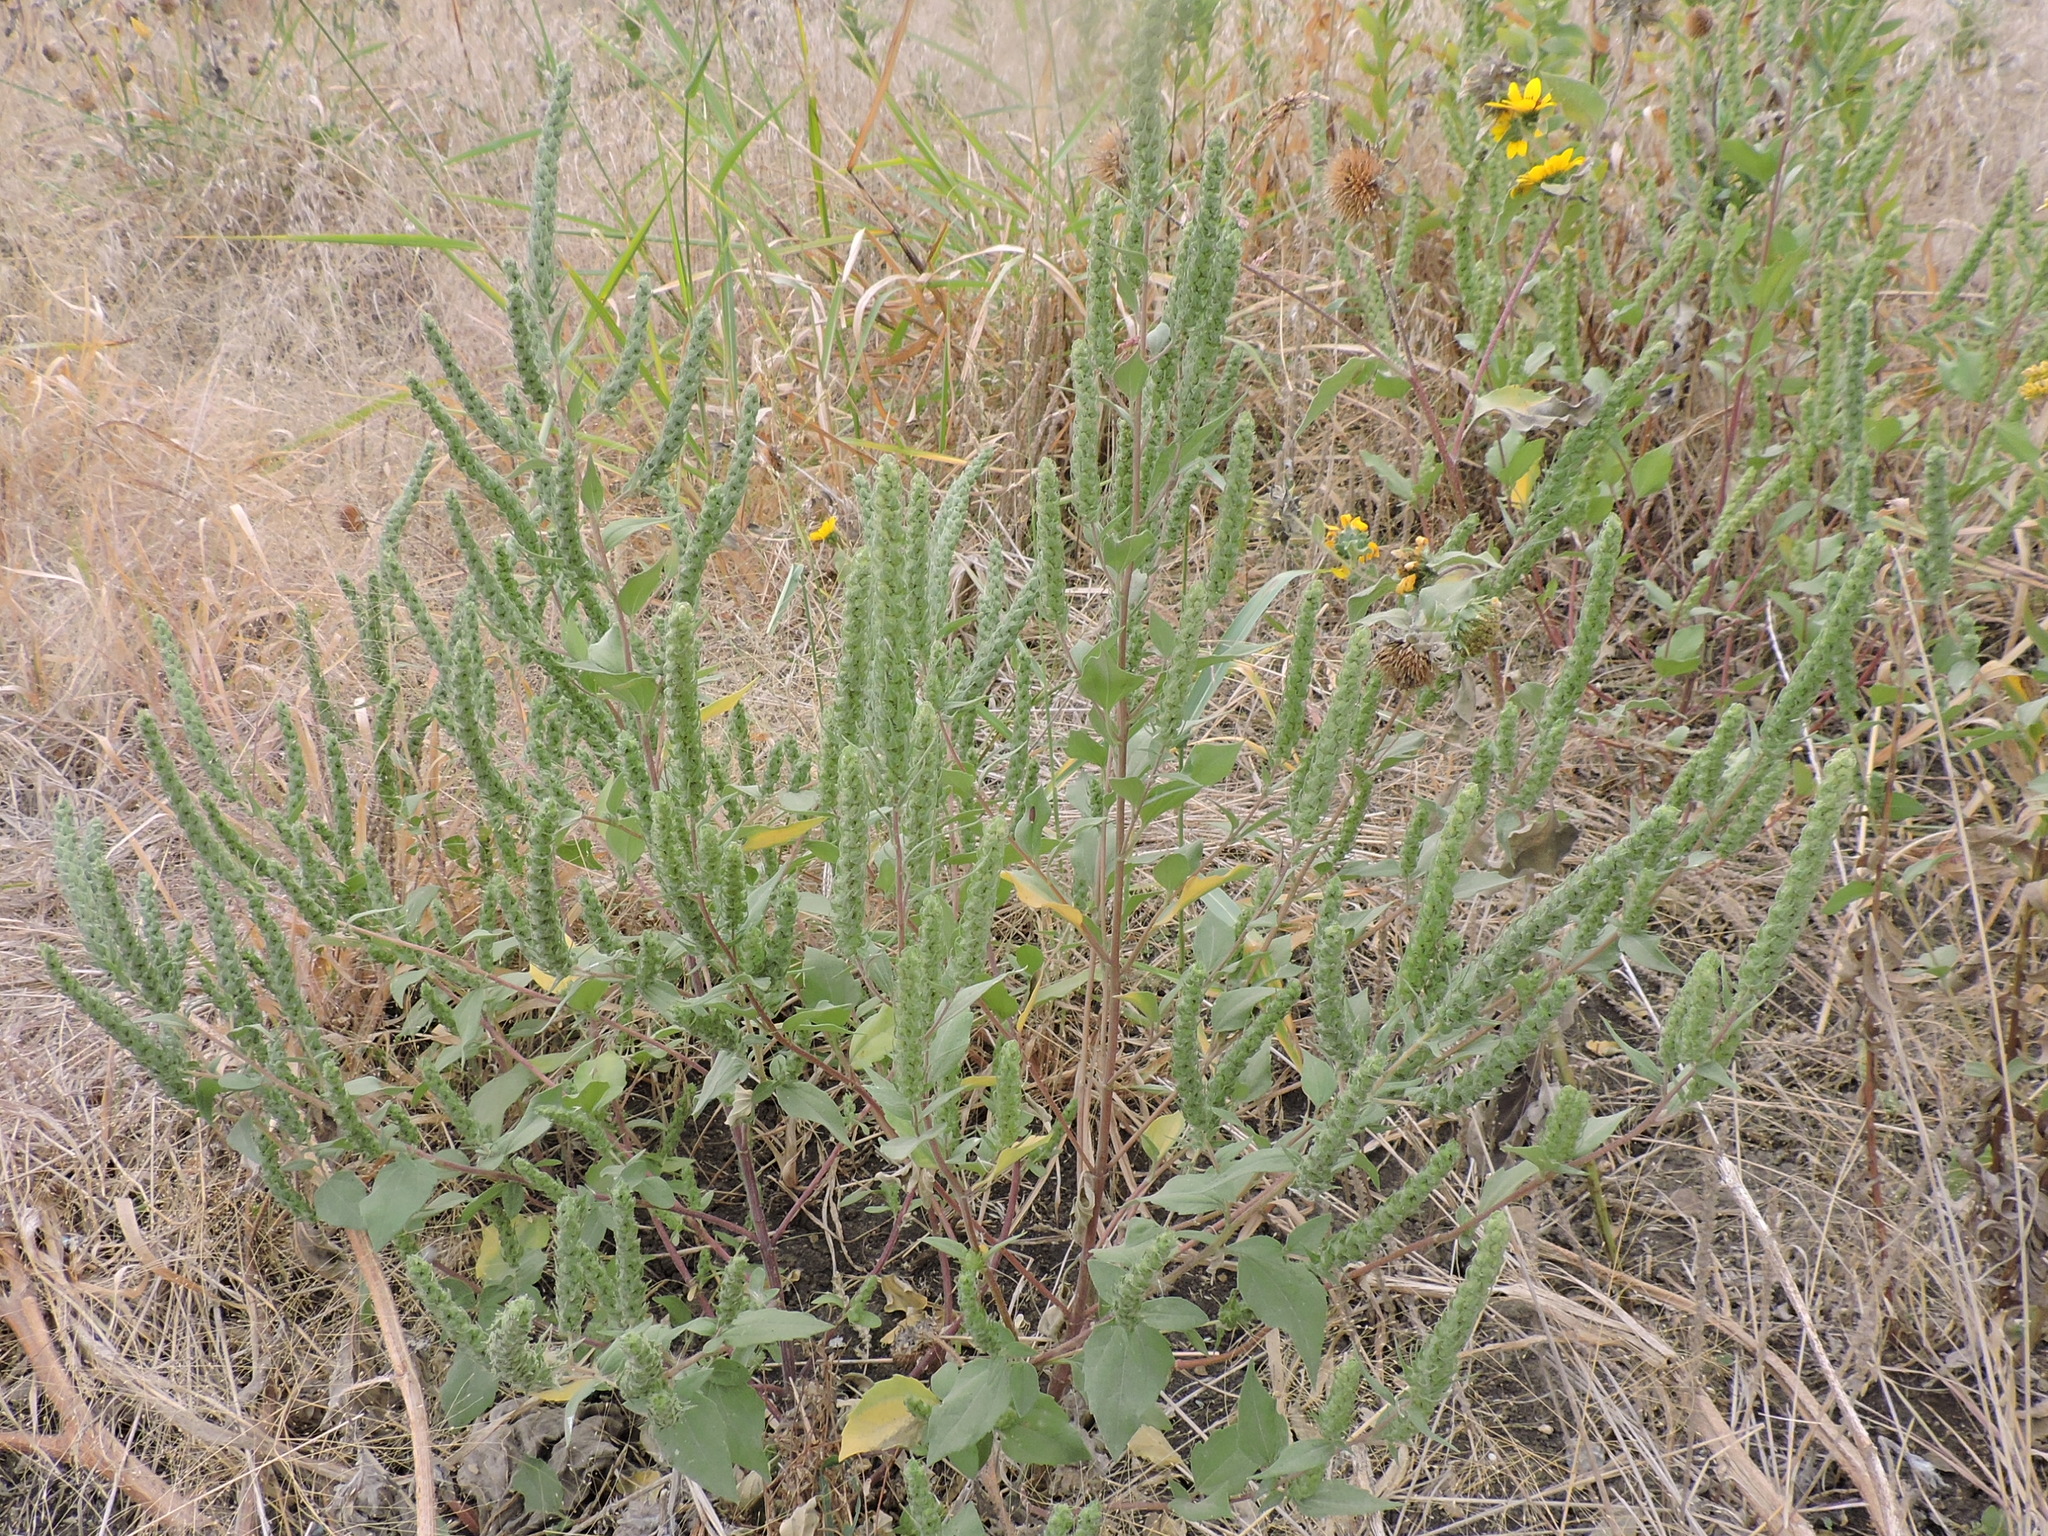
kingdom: Plantae
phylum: Tracheophyta
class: Magnoliopsida
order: Asterales
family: Asteraceae
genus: Iva
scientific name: Iva annua
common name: Marsh-elder
